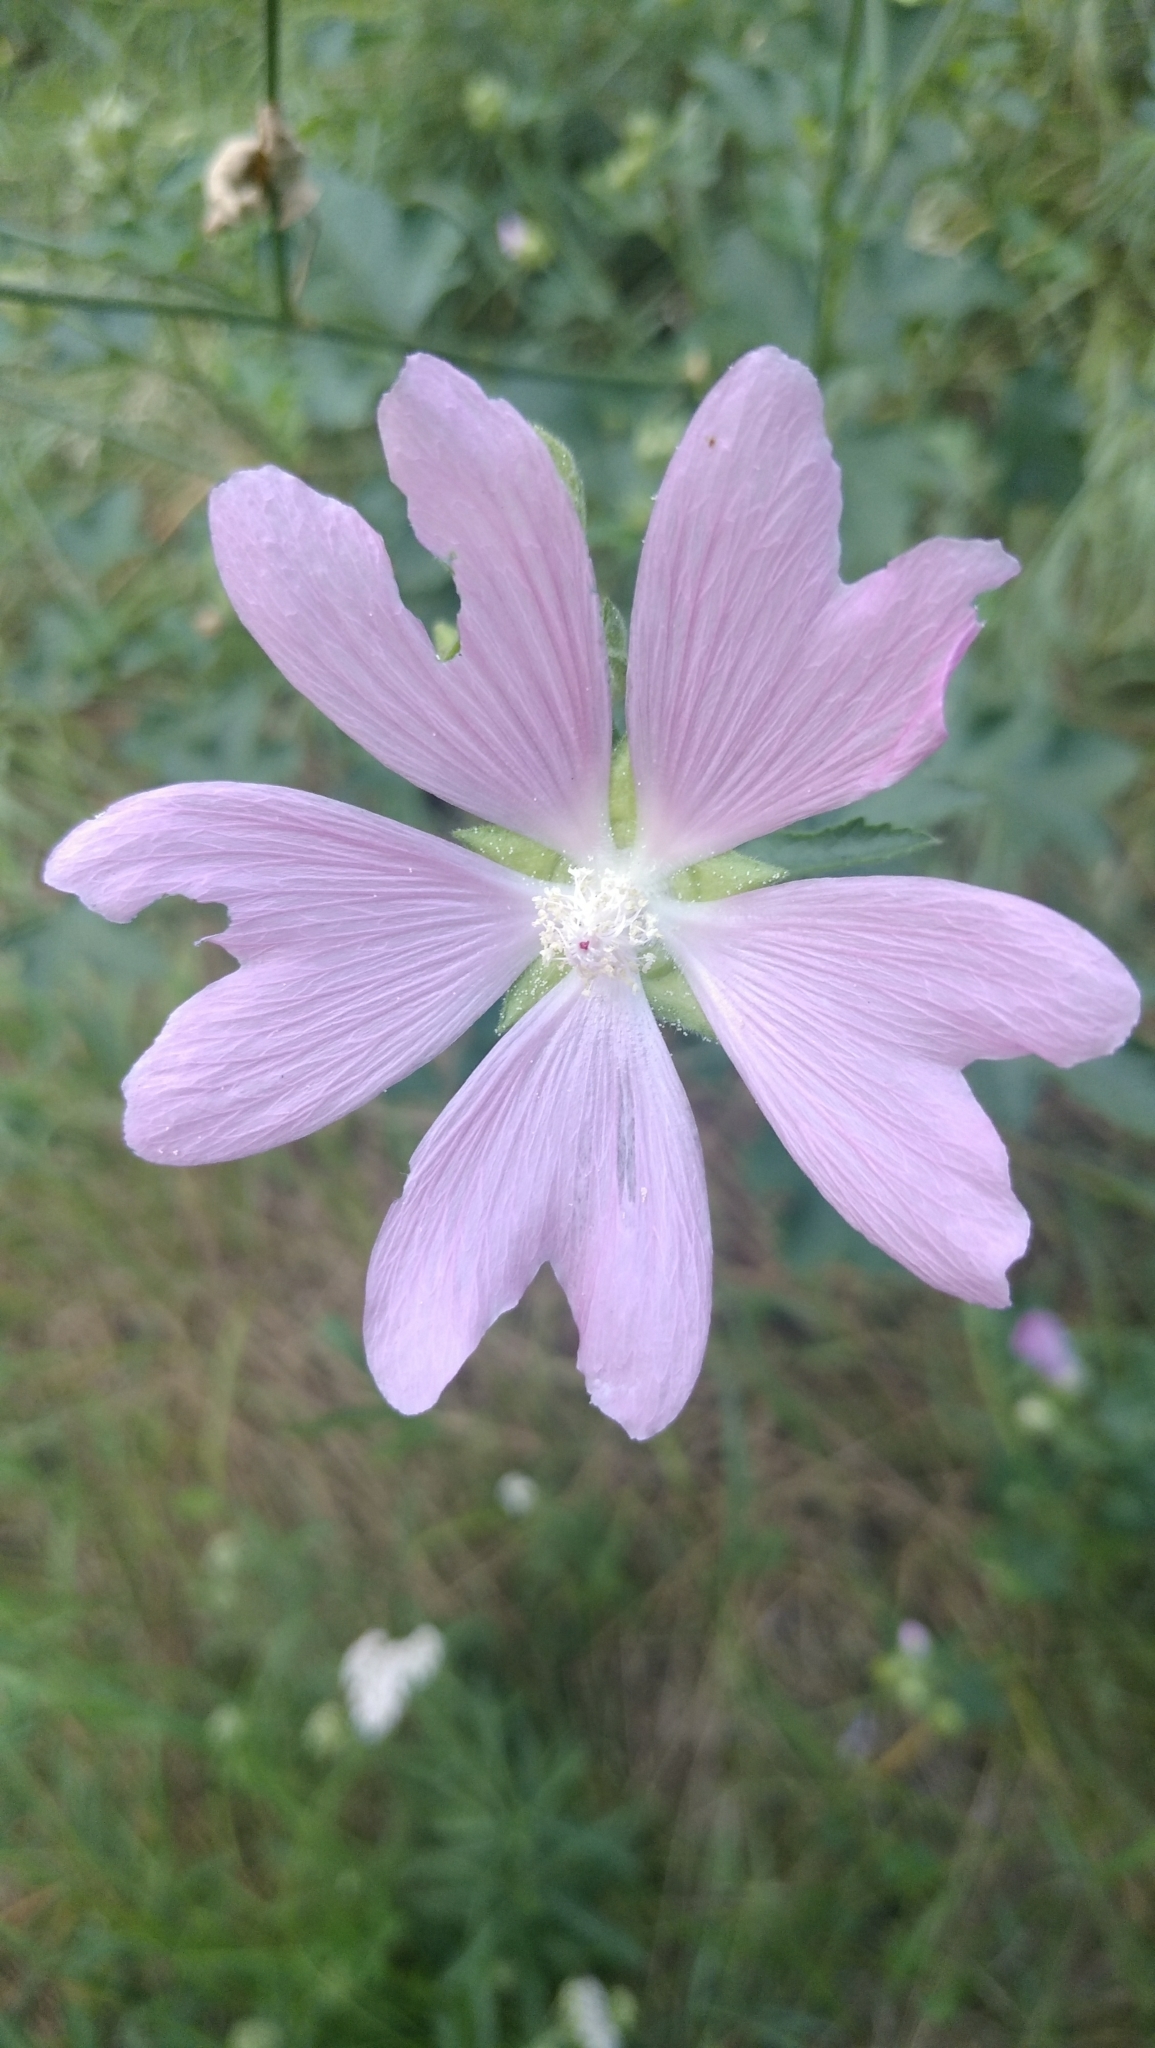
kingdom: Plantae
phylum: Tracheophyta
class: Magnoliopsida
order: Malvales
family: Malvaceae
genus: Malva
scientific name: Malva thuringiaca
